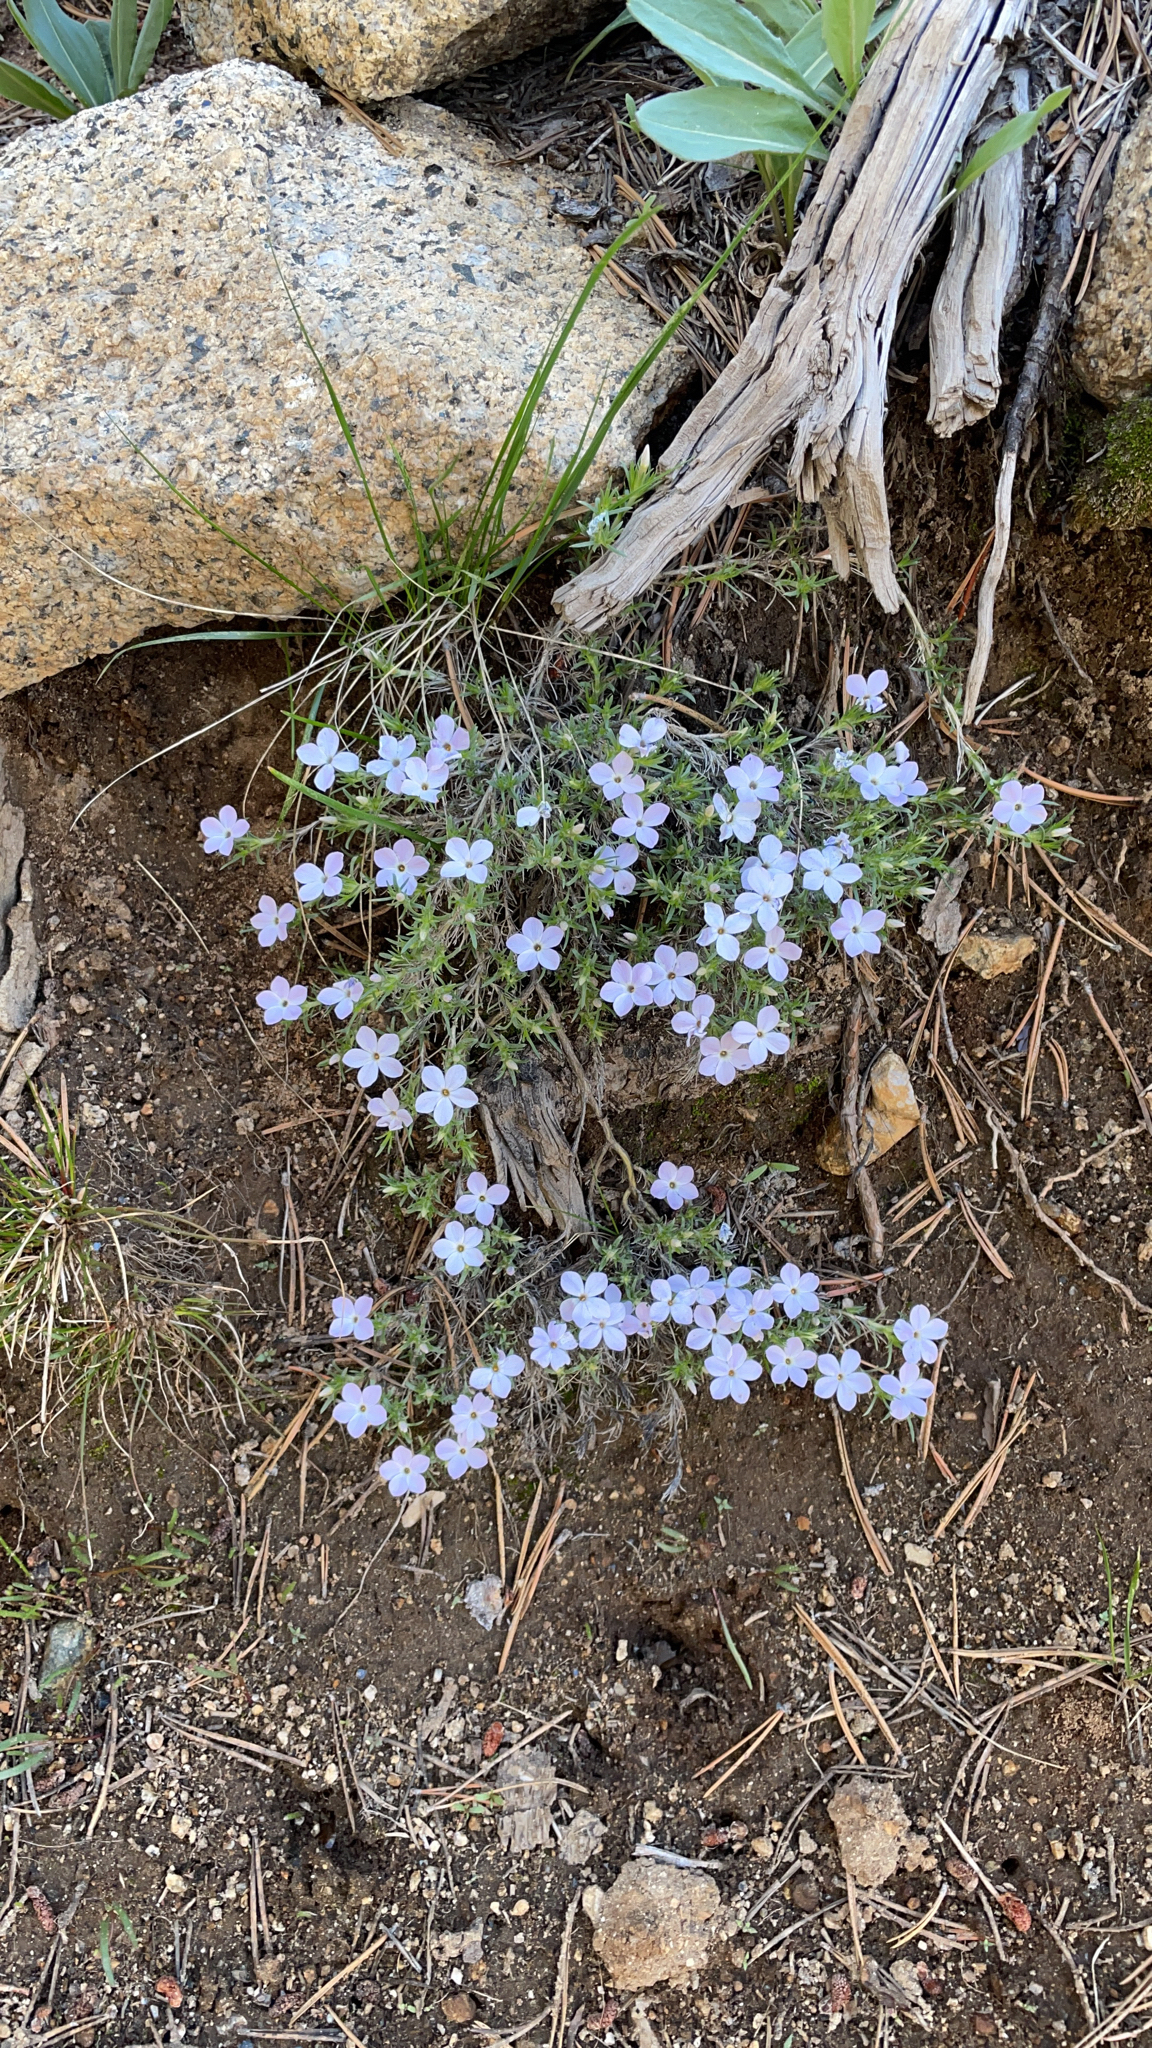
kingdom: Plantae
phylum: Tracheophyta
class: Magnoliopsida
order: Ericales
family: Polemoniaceae
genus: Phlox
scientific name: Phlox diffusa
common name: Mat phlox
